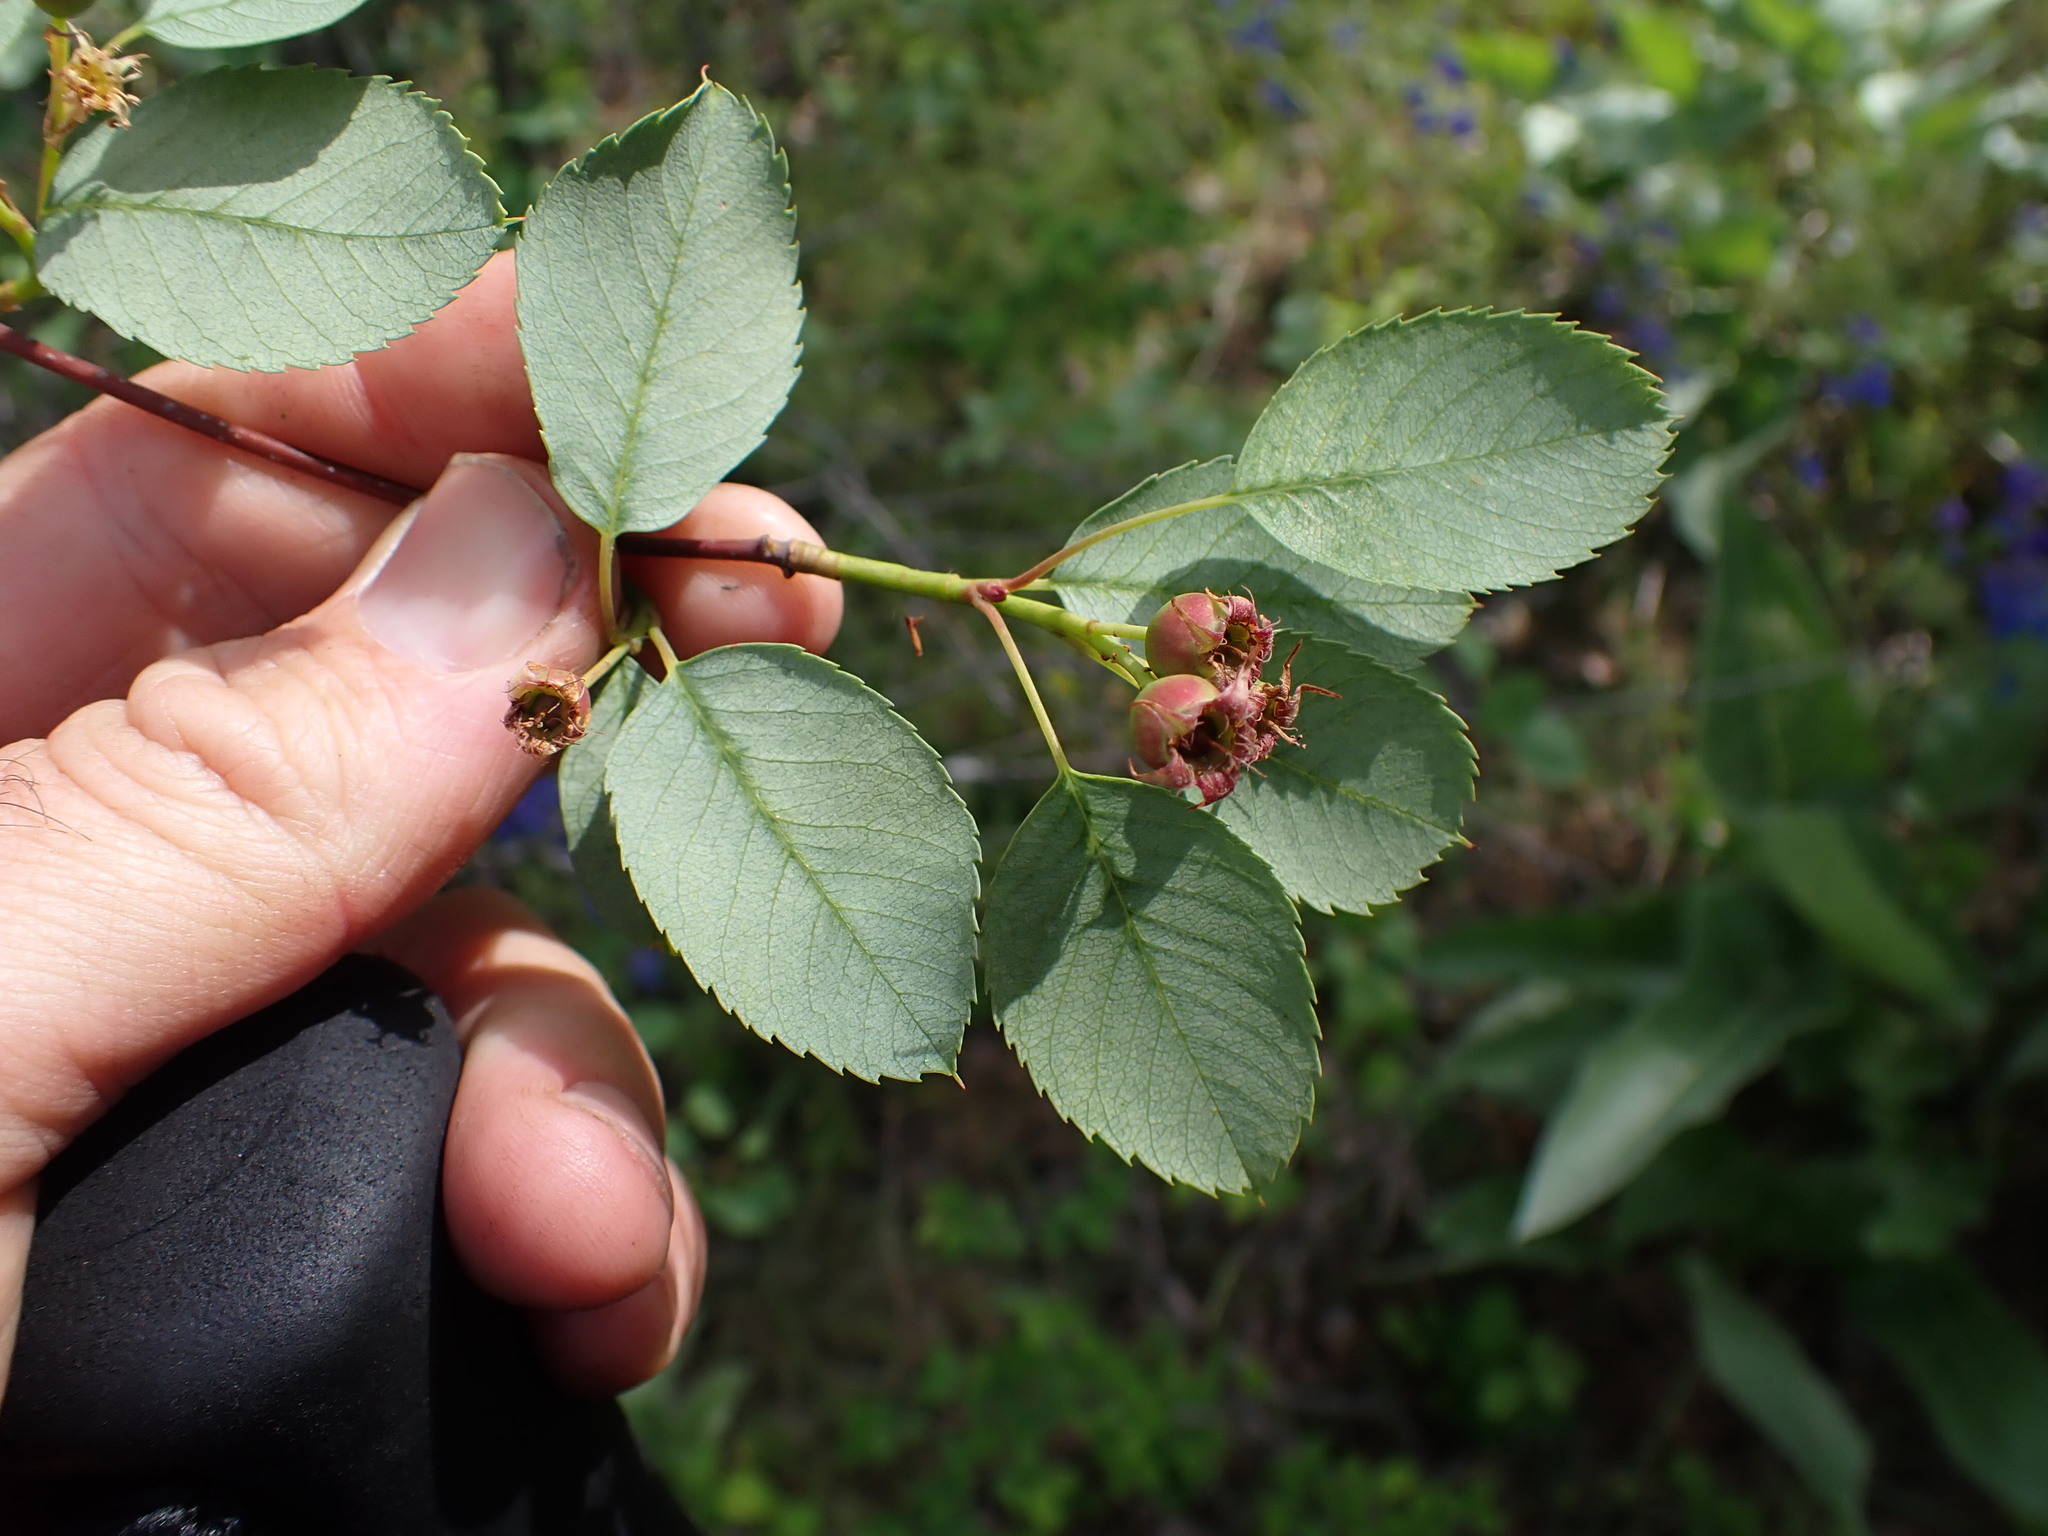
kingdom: Plantae
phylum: Tracheophyta
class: Magnoliopsida
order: Rosales
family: Rosaceae
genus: Amelanchier
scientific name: Amelanchier alnifolia
